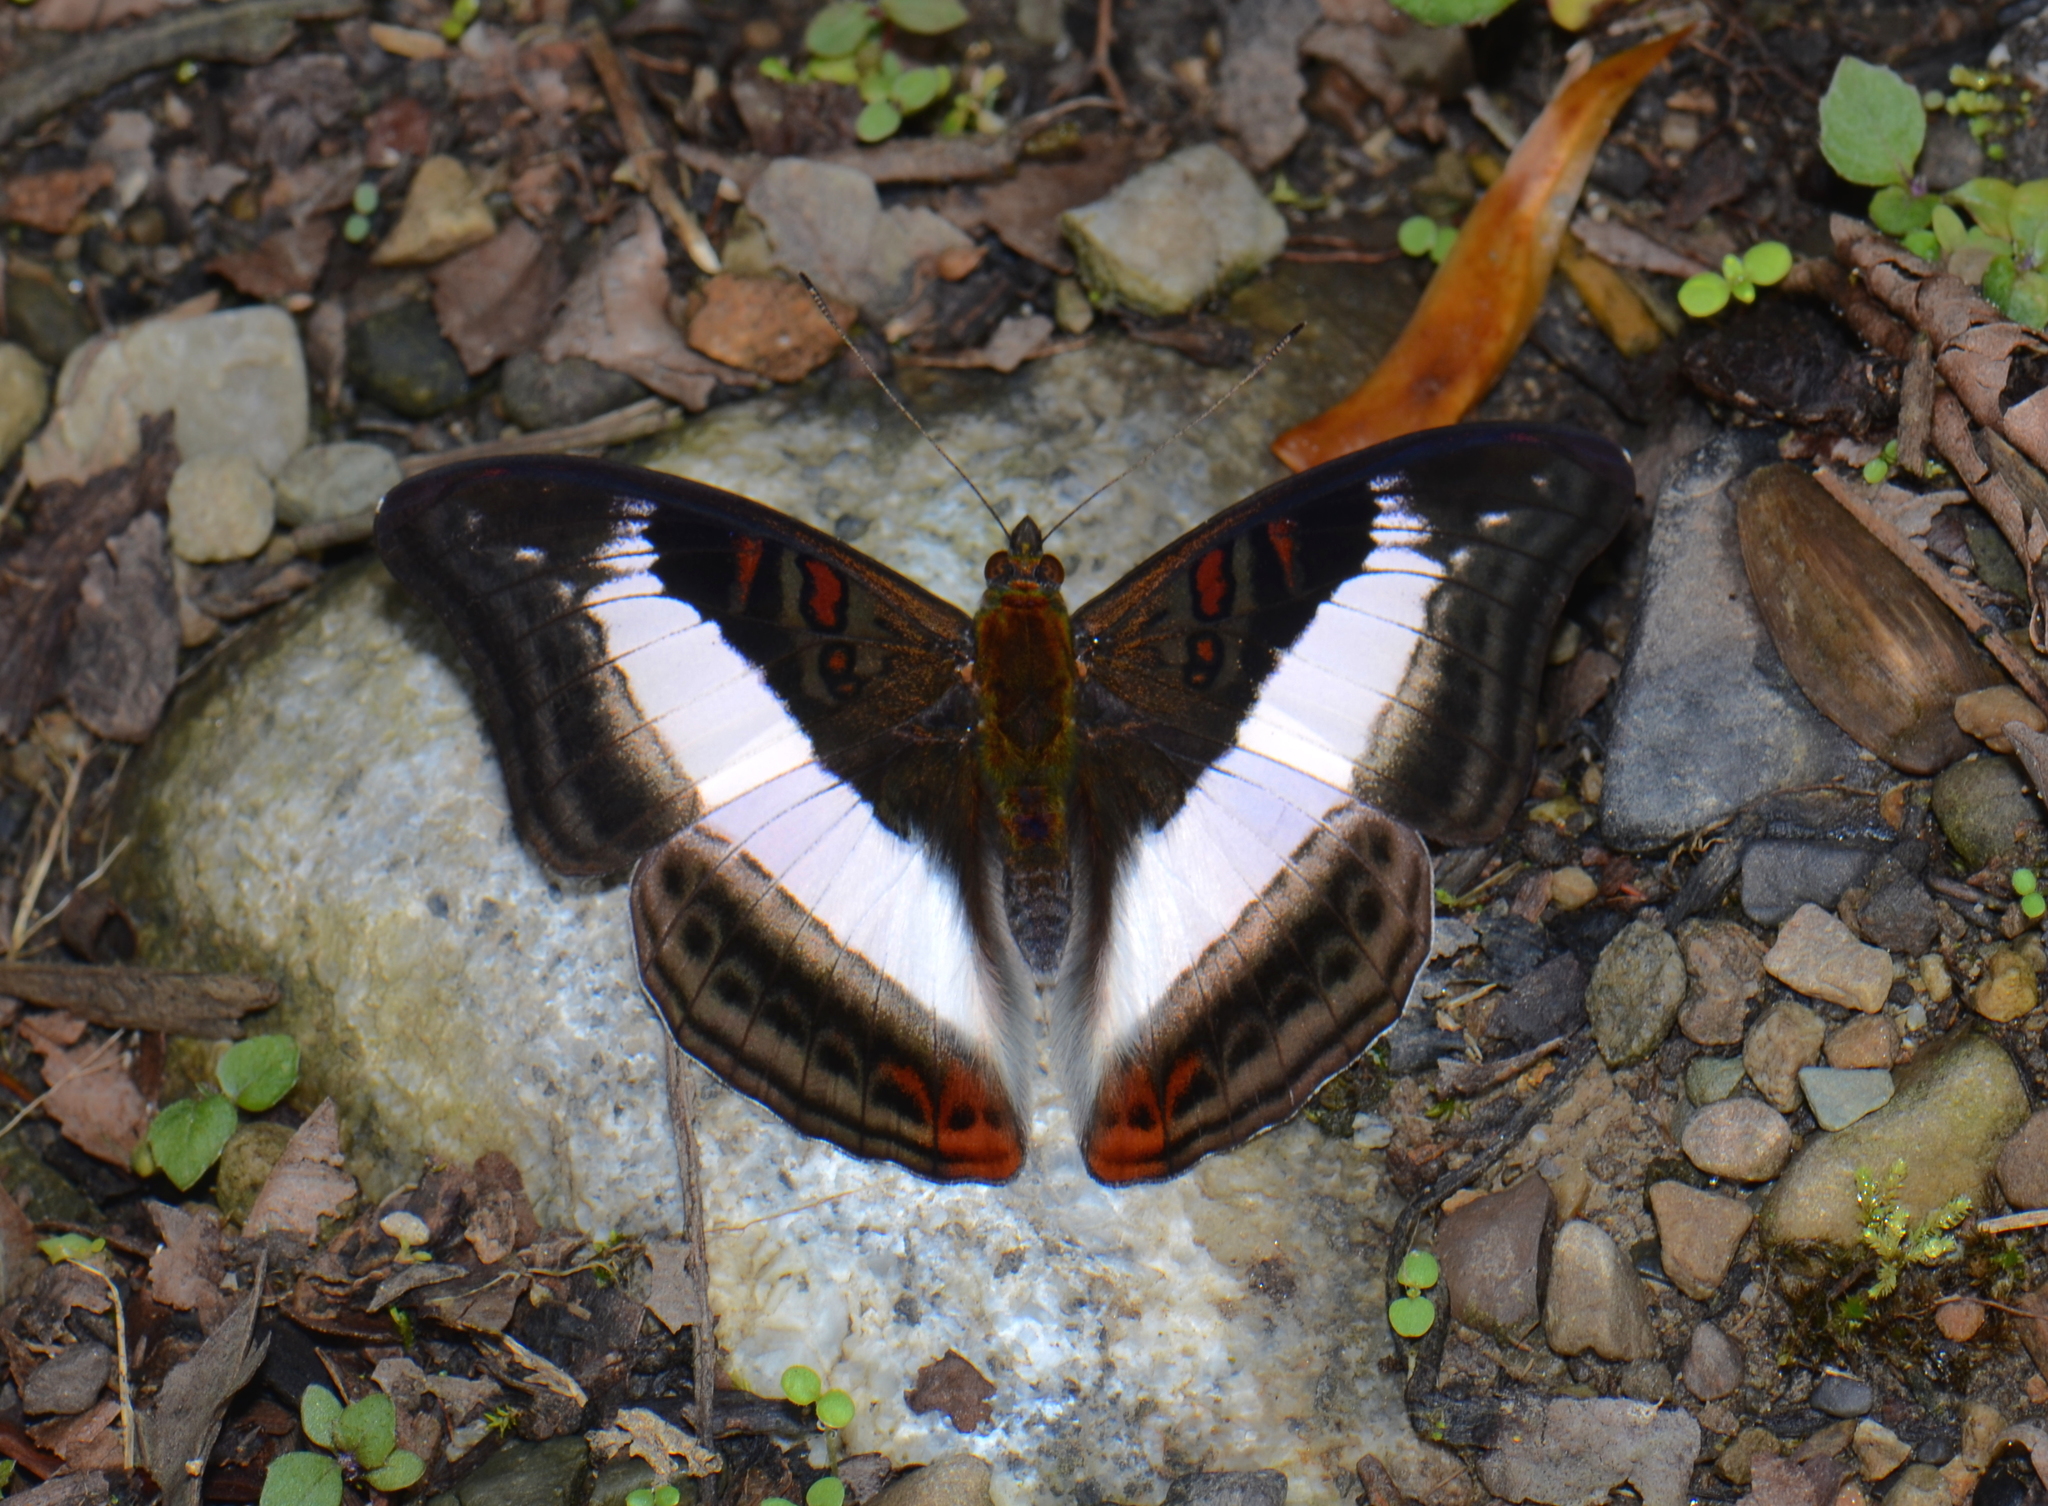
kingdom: Animalia
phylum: Arthropoda
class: Insecta
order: Lepidoptera
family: Nymphalidae
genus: Limenitis
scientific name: Limenitis Parasarpa dudu
